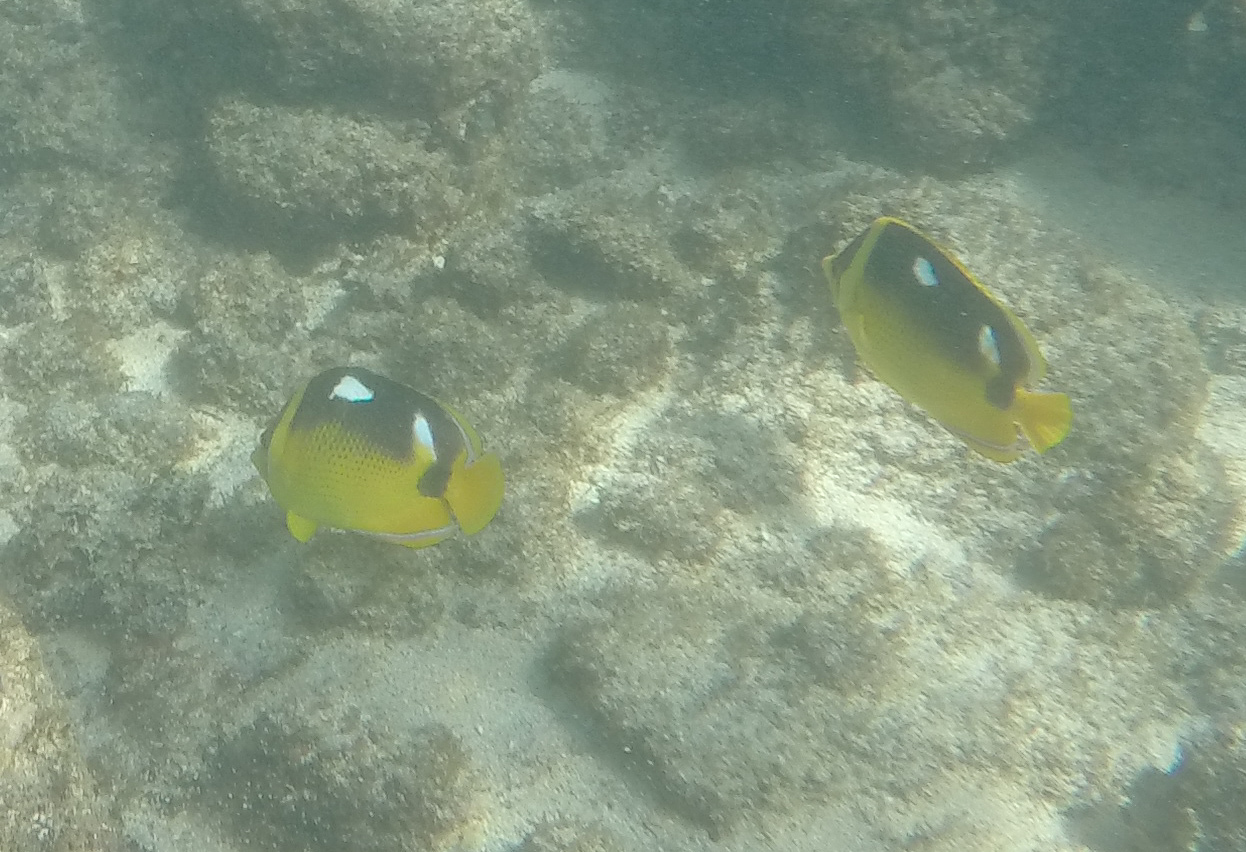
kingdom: Animalia
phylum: Chordata
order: Perciformes
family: Chaetodontidae
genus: Chaetodon
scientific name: Chaetodon quadrimaculatus
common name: Fourspot butterflyfish
